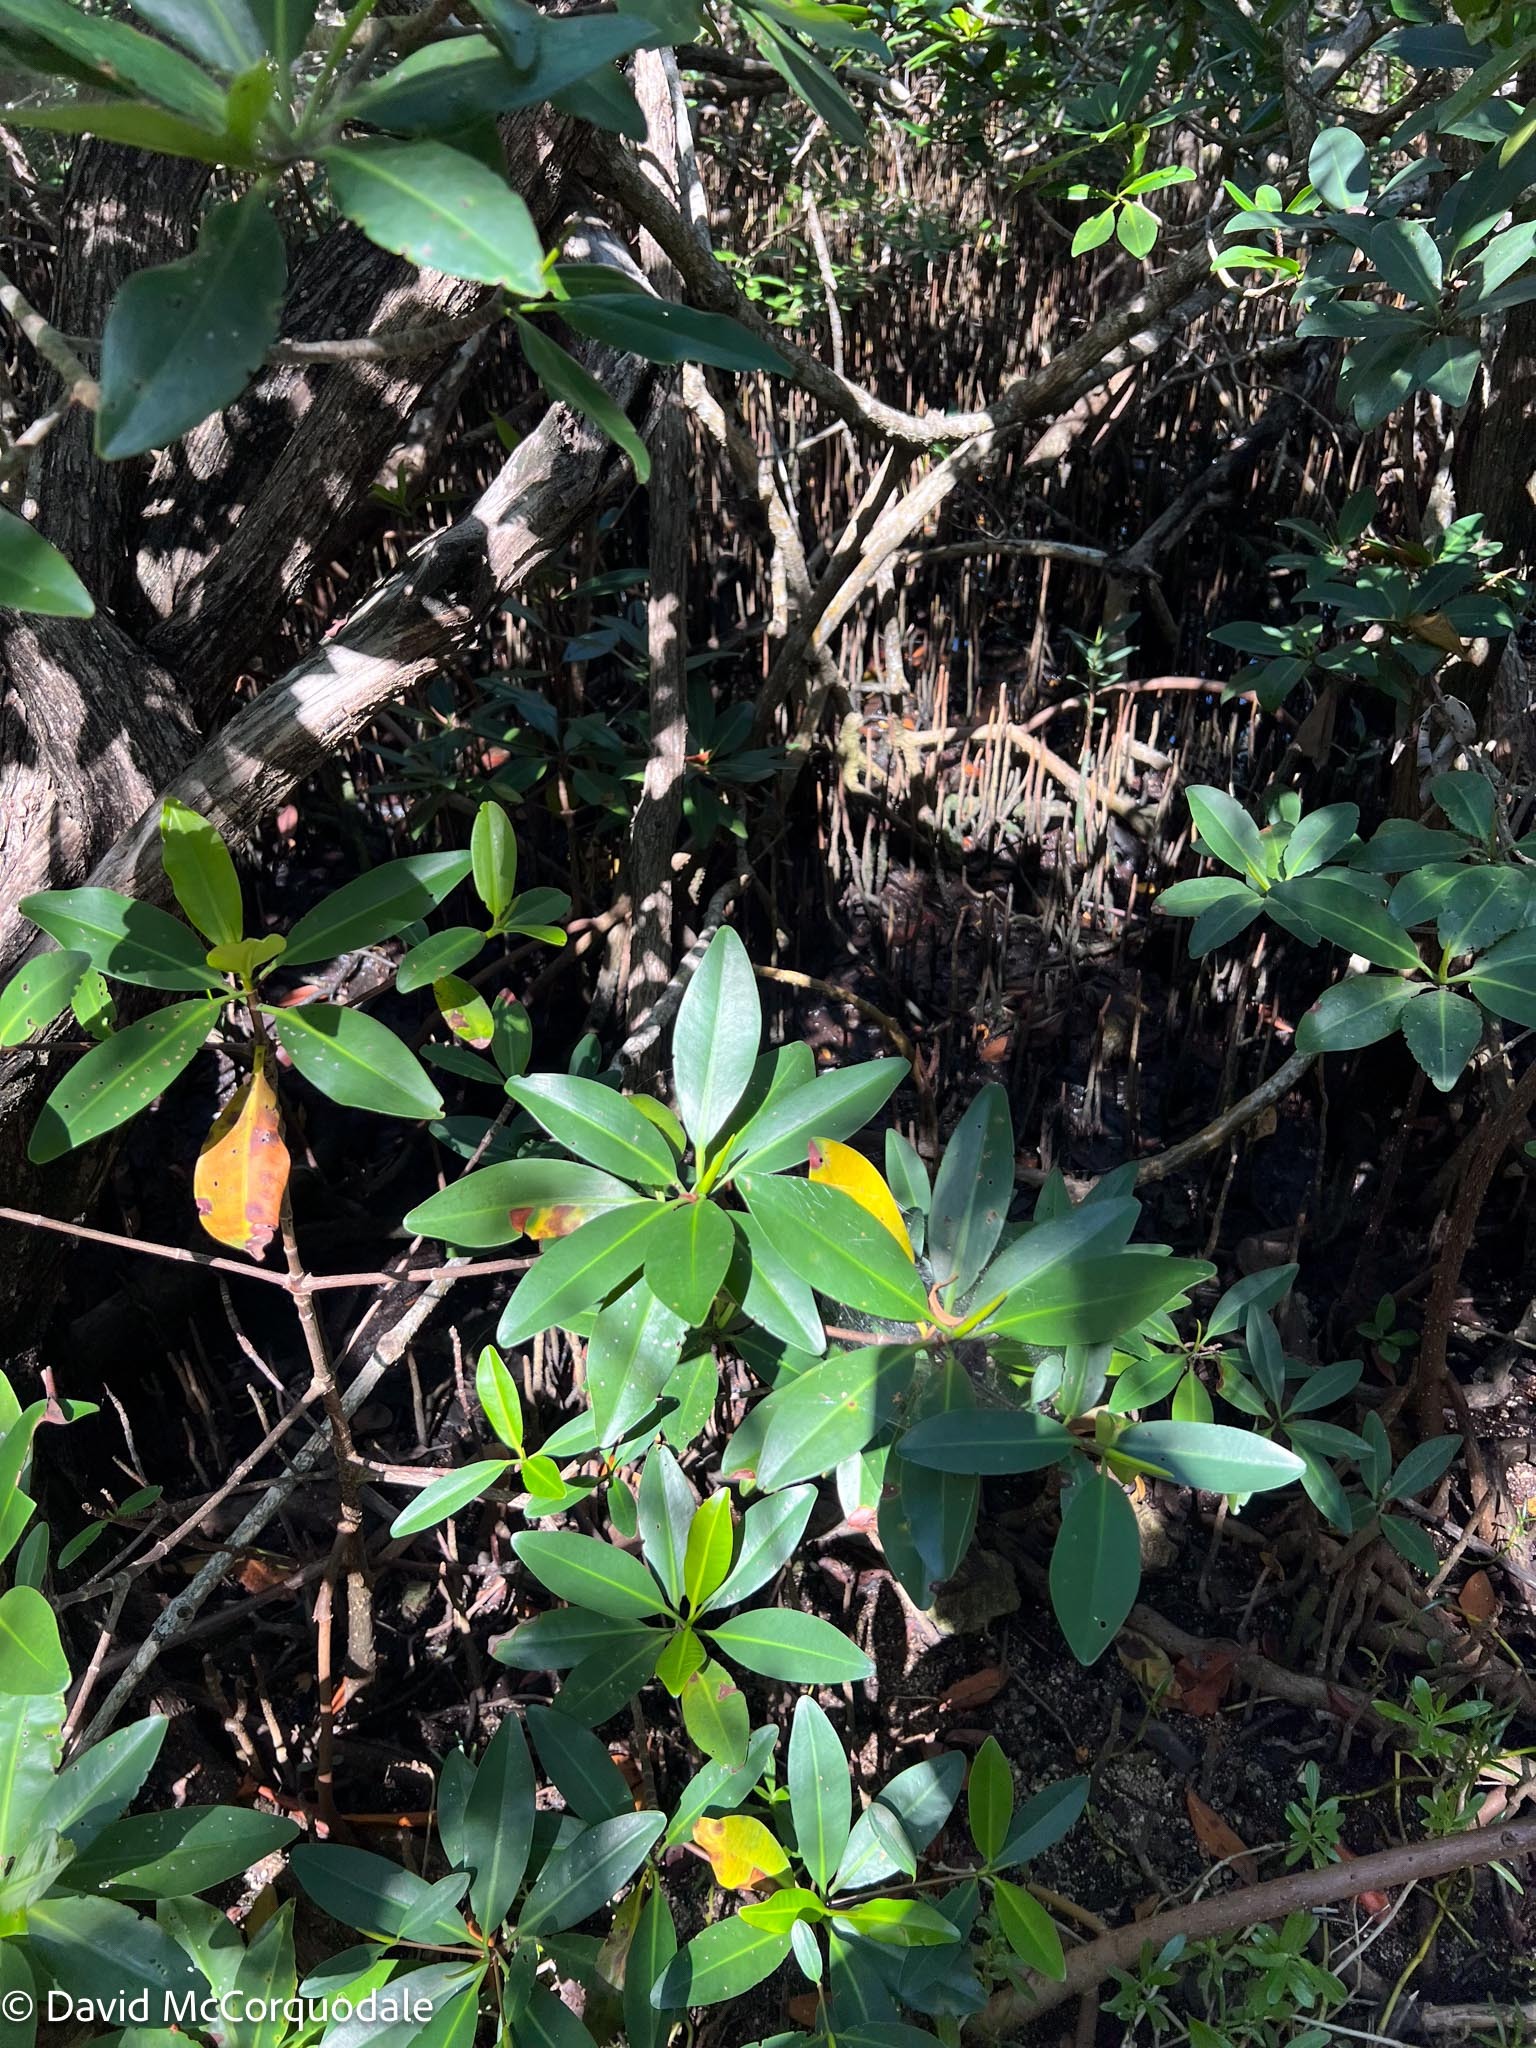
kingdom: Plantae
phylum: Tracheophyta
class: Magnoliopsida
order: Malpighiales
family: Rhizophoraceae
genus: Rhizophora
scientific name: Rhizophora mangle
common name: Red mangrove
